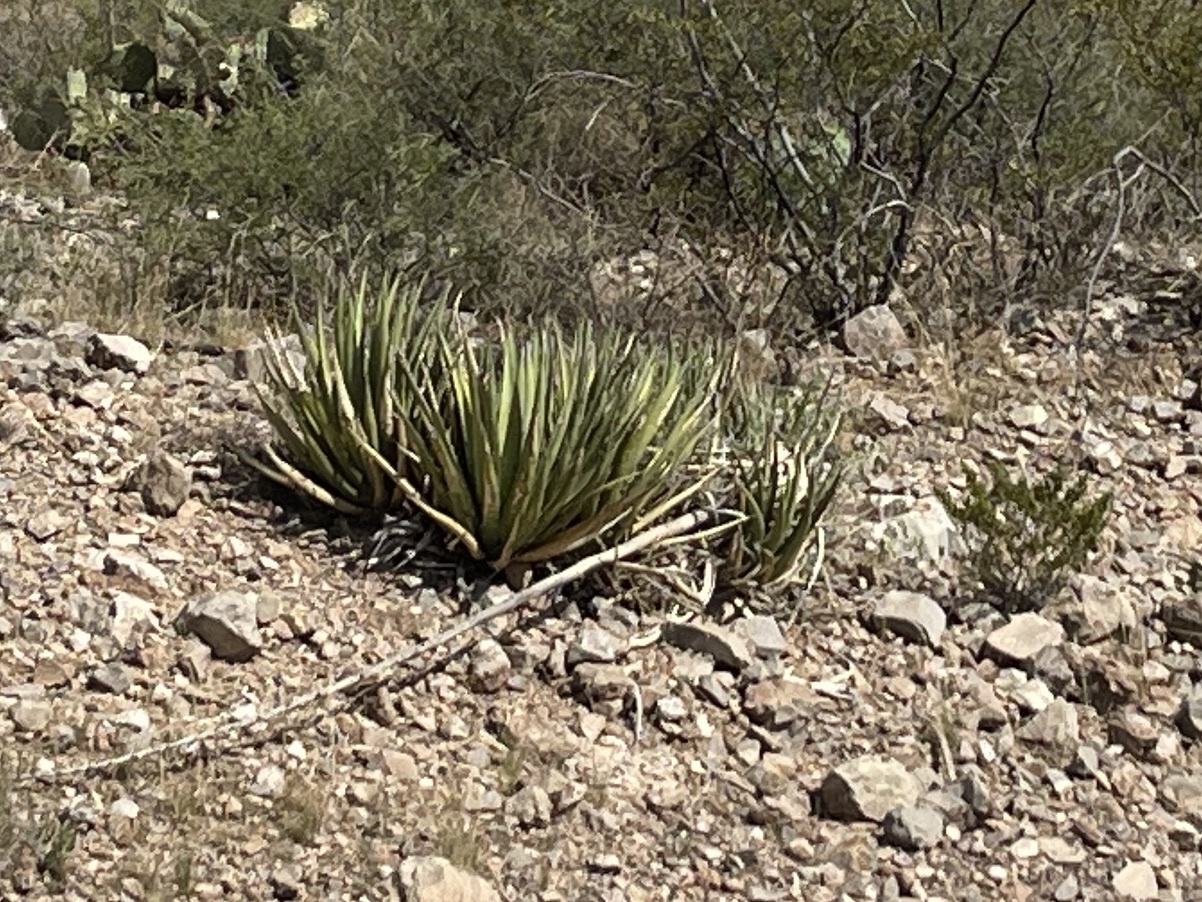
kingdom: Plantae
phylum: Tracheophyta
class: Liliopsida
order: Asparagales
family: Asparagaceae
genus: Agave
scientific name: Agave lechuguilla
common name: Lecheguilla agave
